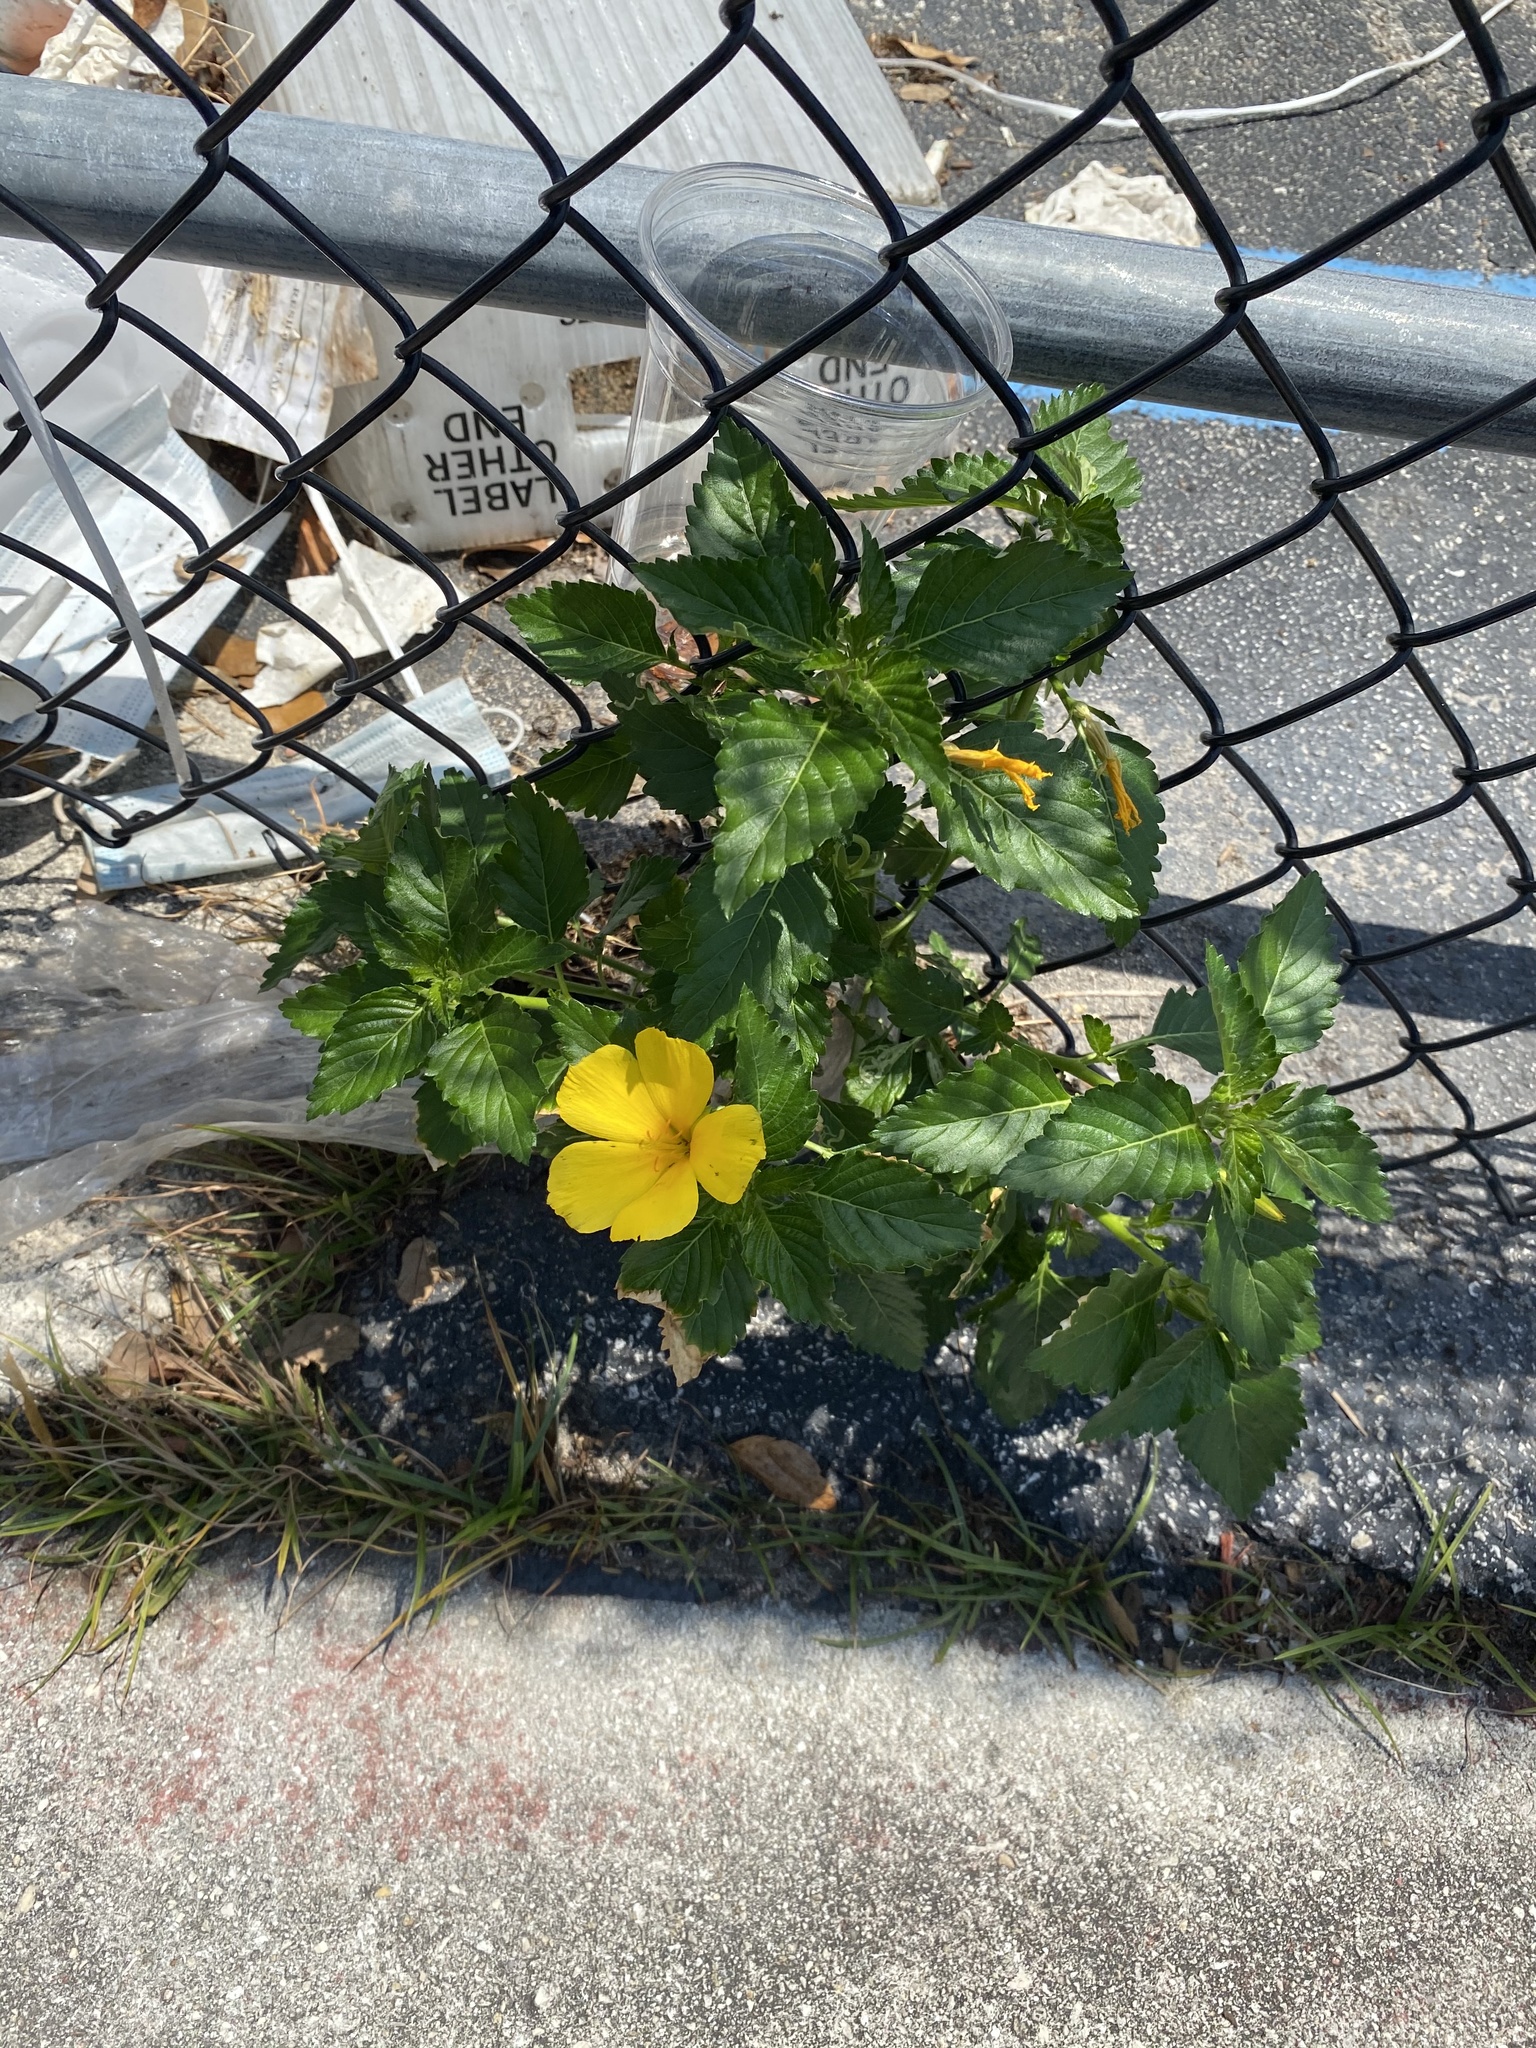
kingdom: Plantae
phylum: Tracheophyta
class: Magnoliopsida
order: Malpighiales
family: Turneraceae
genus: Turnera
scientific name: Turnera ulmifolia
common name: Ramgoat dashalong
